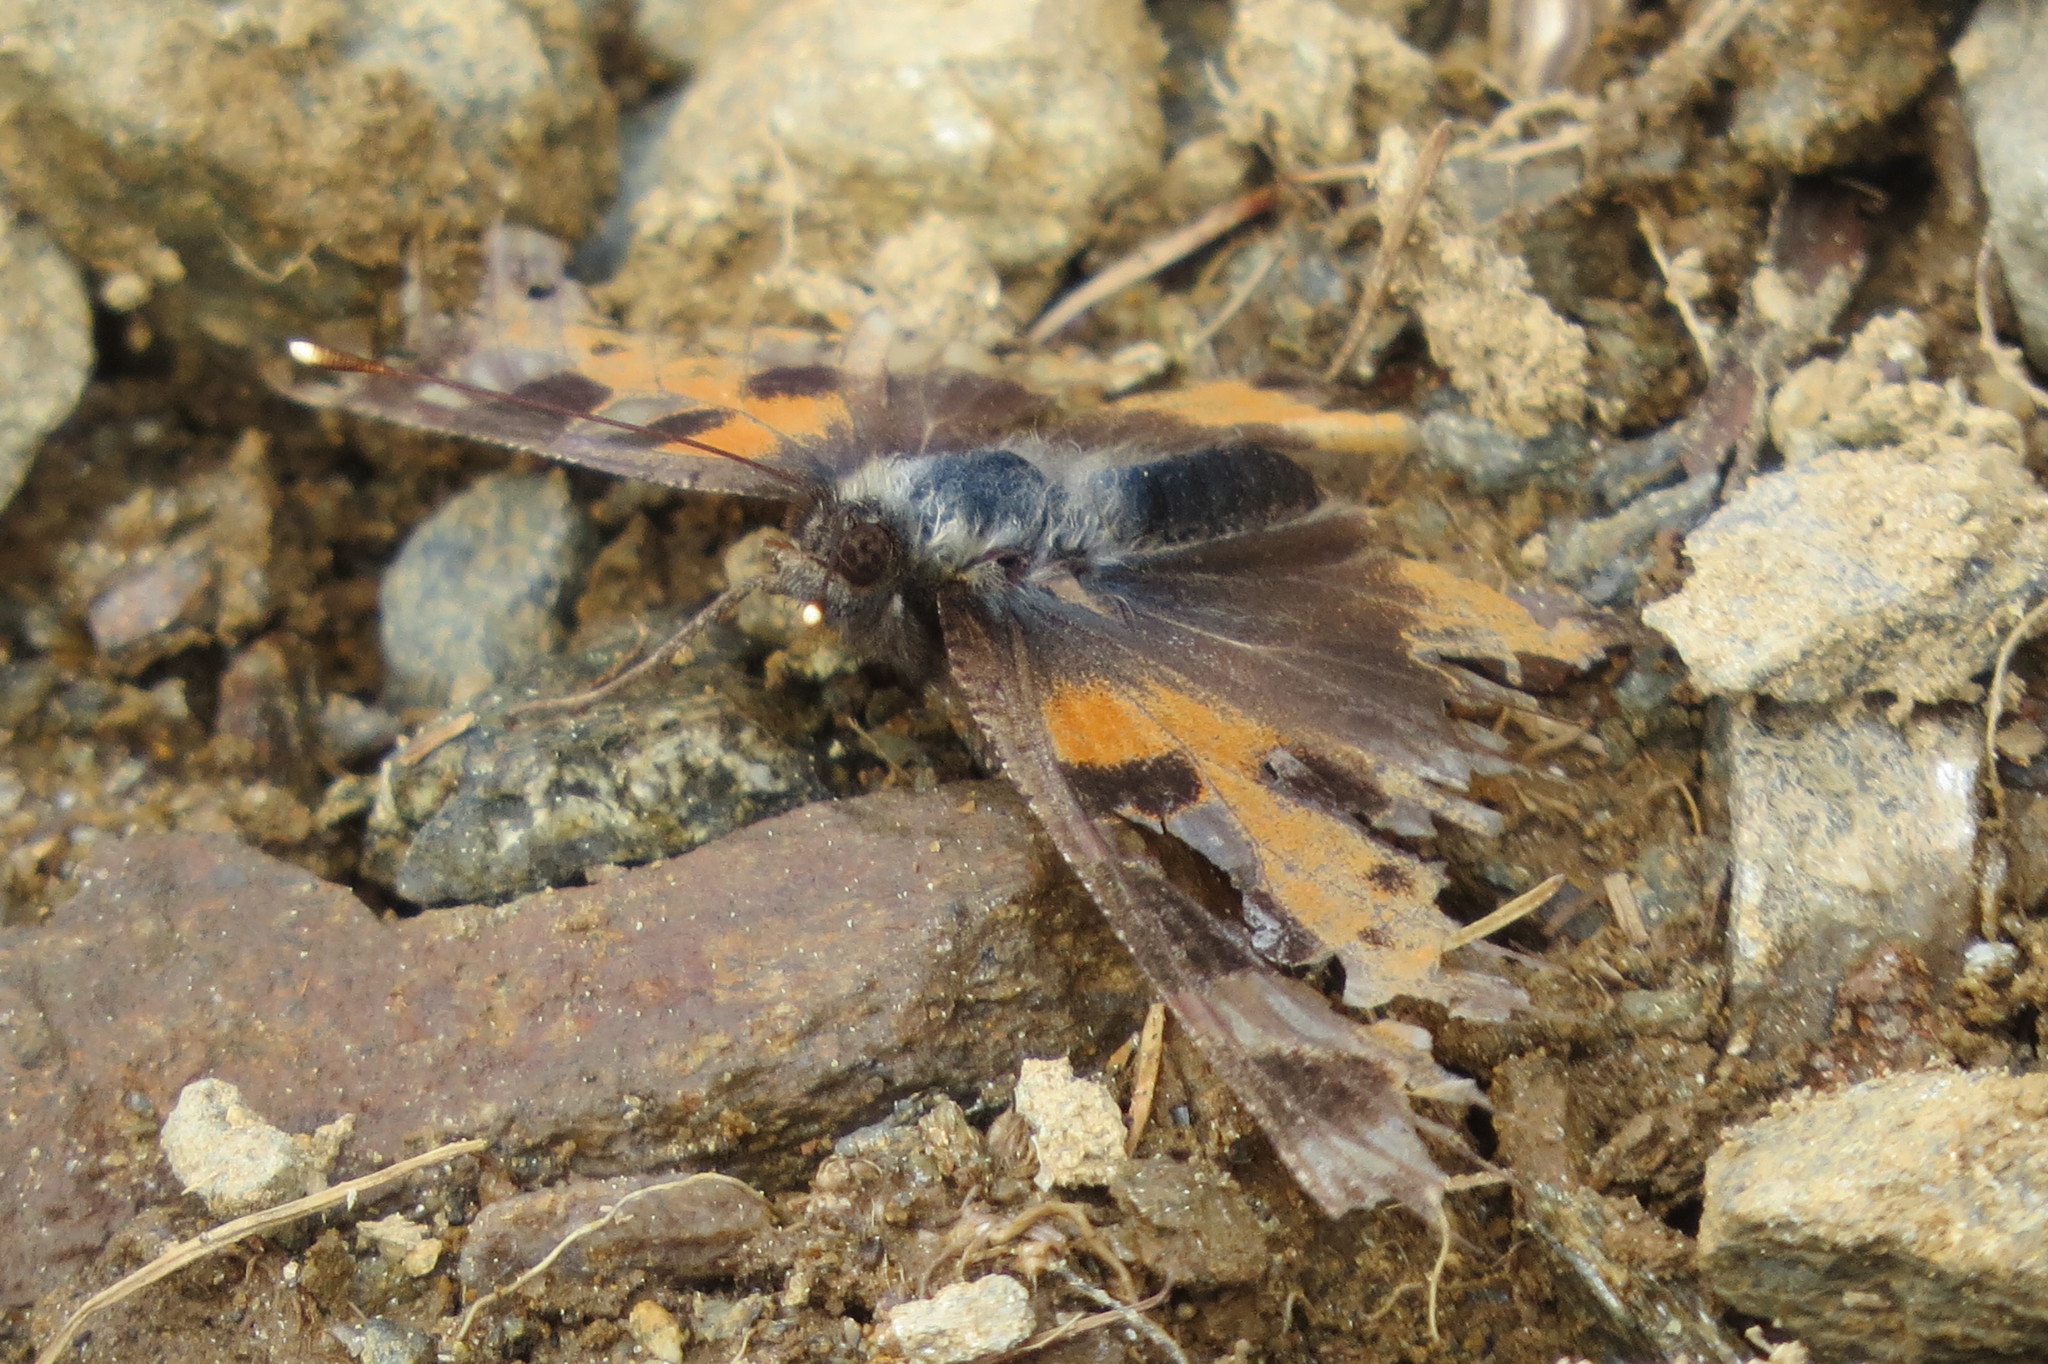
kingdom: Animalia
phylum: Arthropoda
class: Insecta
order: Lepidoptera
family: Nymphalidae
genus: Aglais
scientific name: Aglais urticae
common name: Small tortoiseshell
